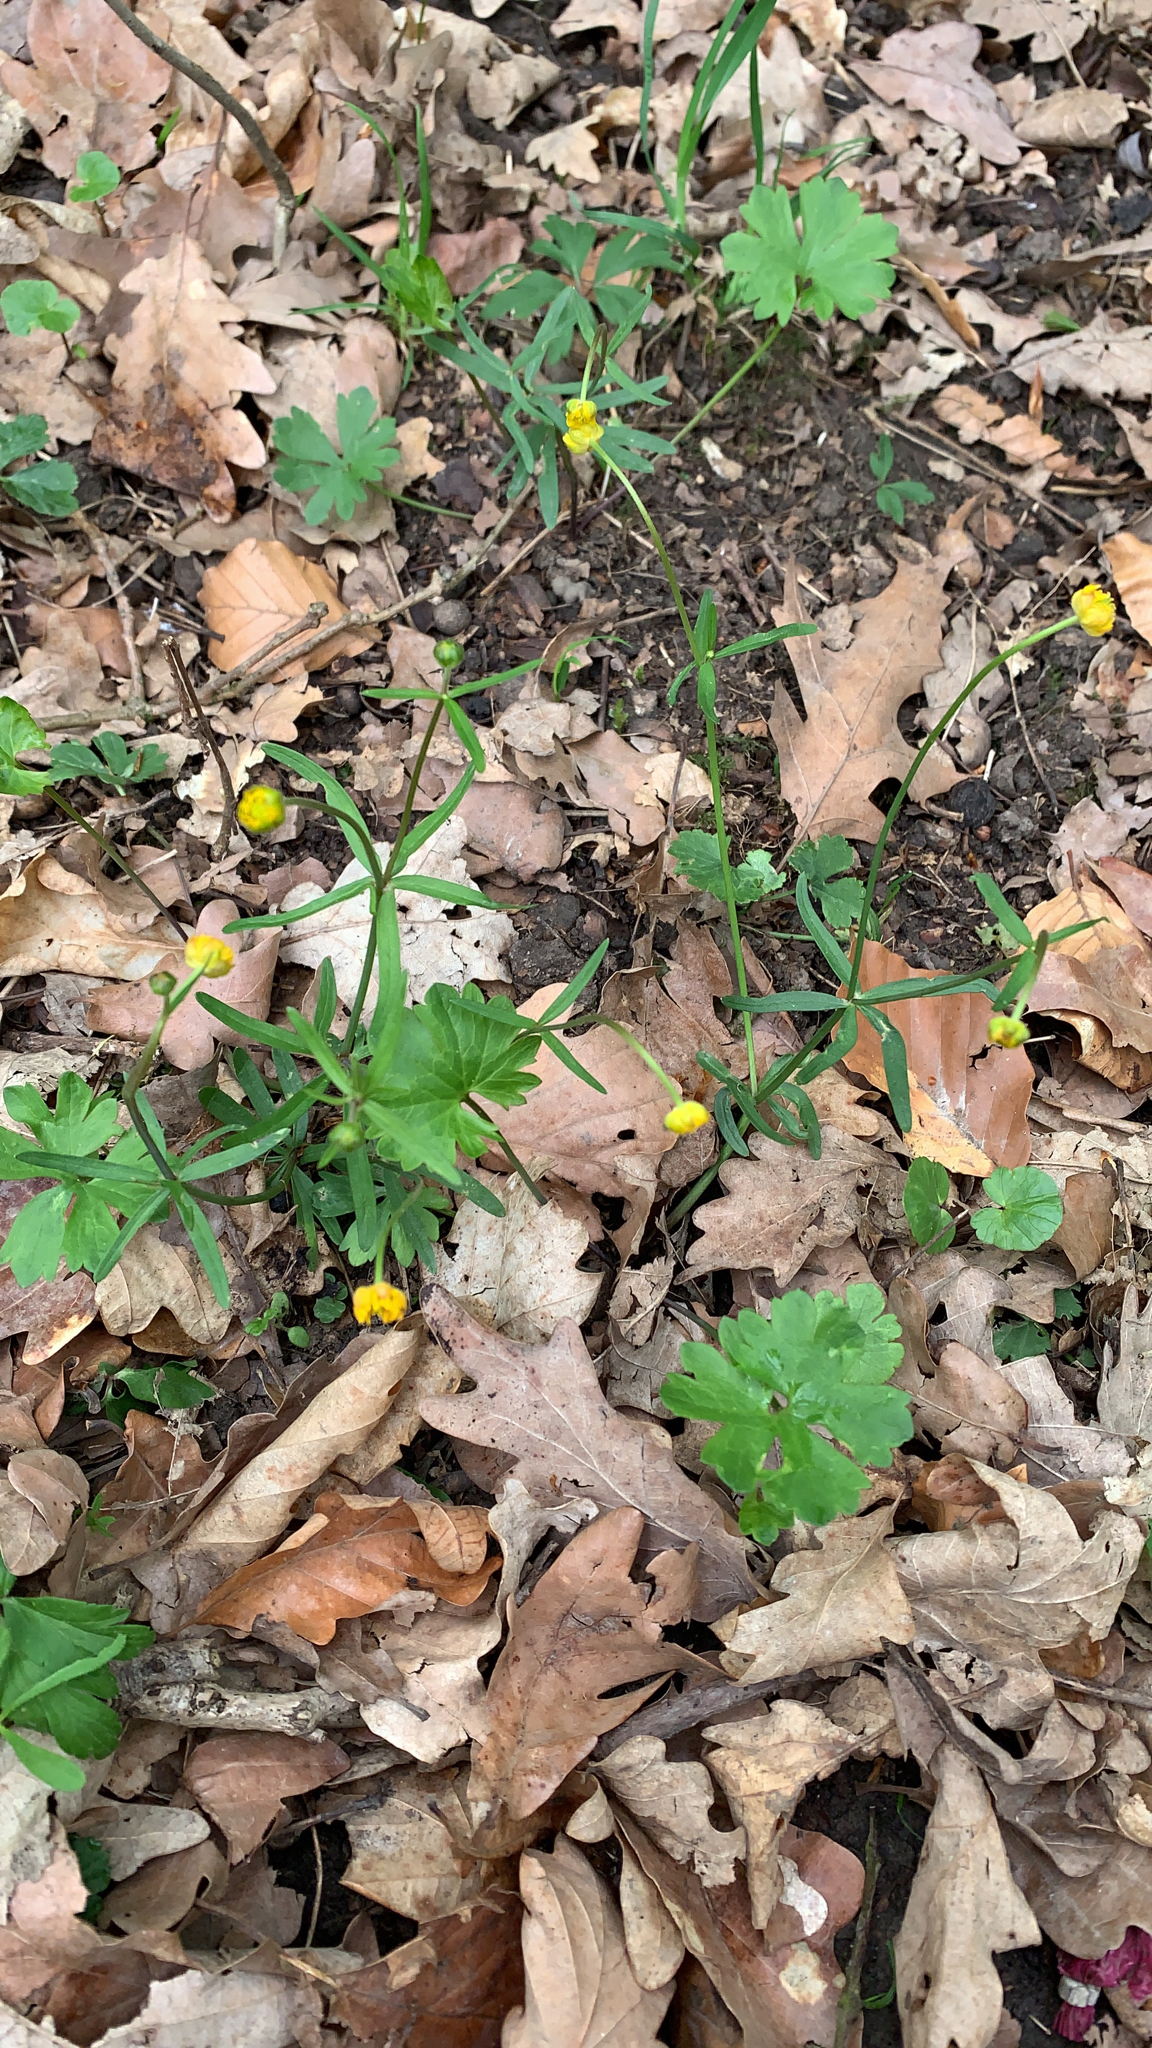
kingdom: Plantae
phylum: Tracheophyta
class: Magnoliopsida
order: Ranunculales
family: Ranunculaceae
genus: Ranunculus
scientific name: Ranunculus auricomus
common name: Goldilocks buttercup
